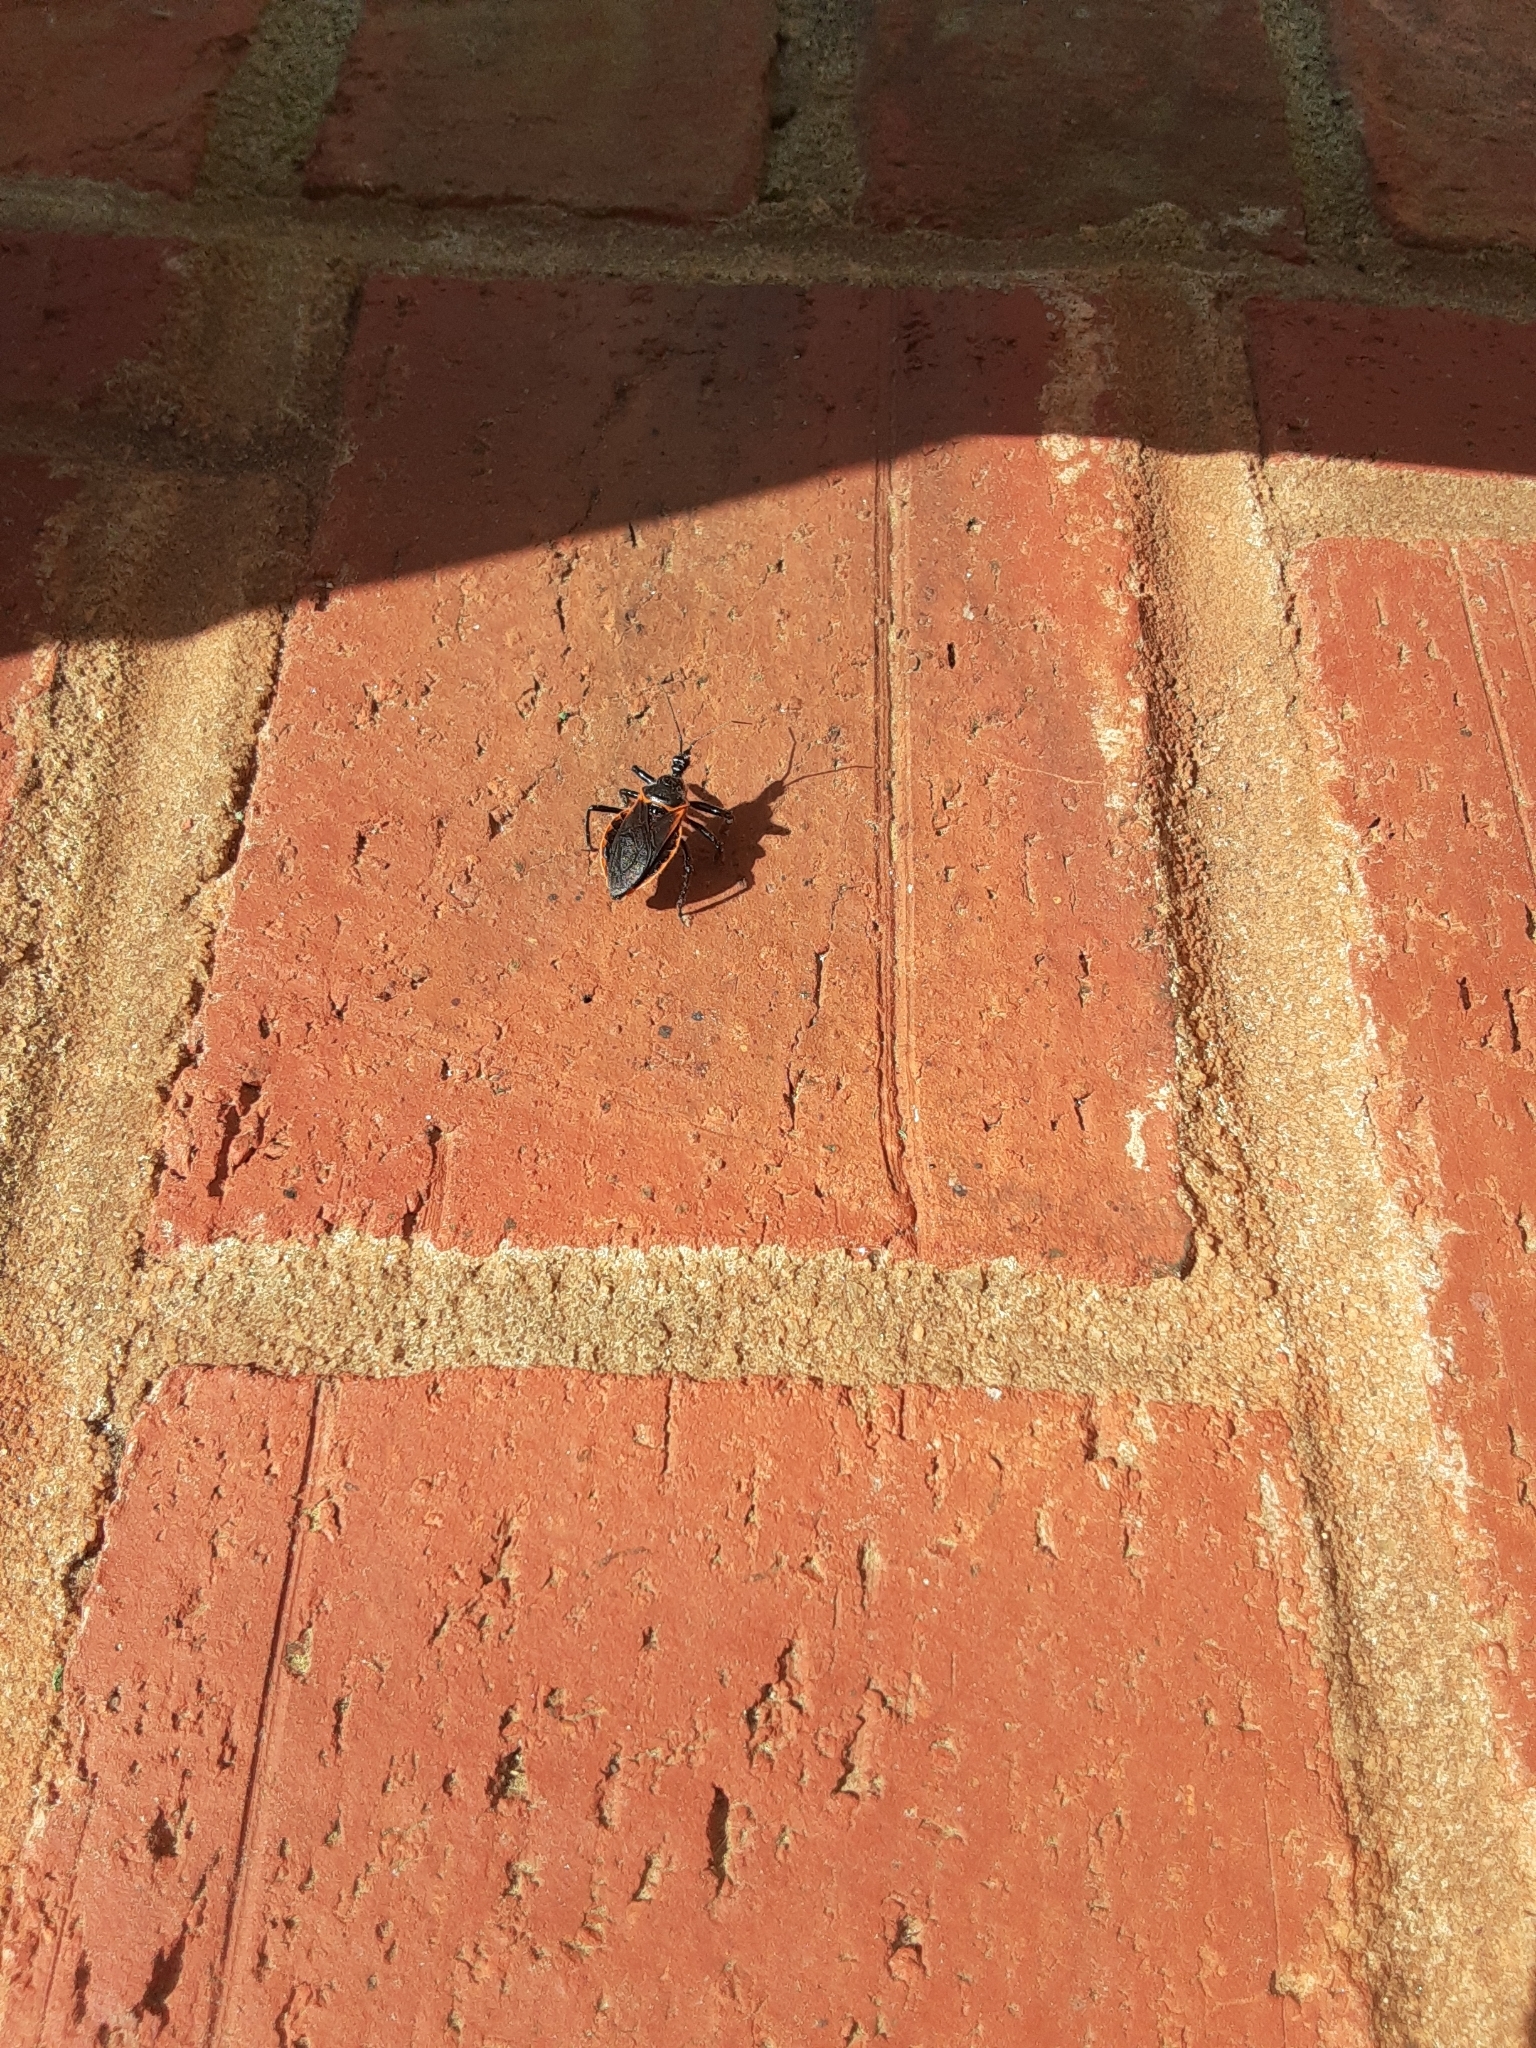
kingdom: Animalia
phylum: Arthropoda
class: Insecta
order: Hemiptera
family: Reduviidae
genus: Apiomerus
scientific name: Apiomerus crassipes
